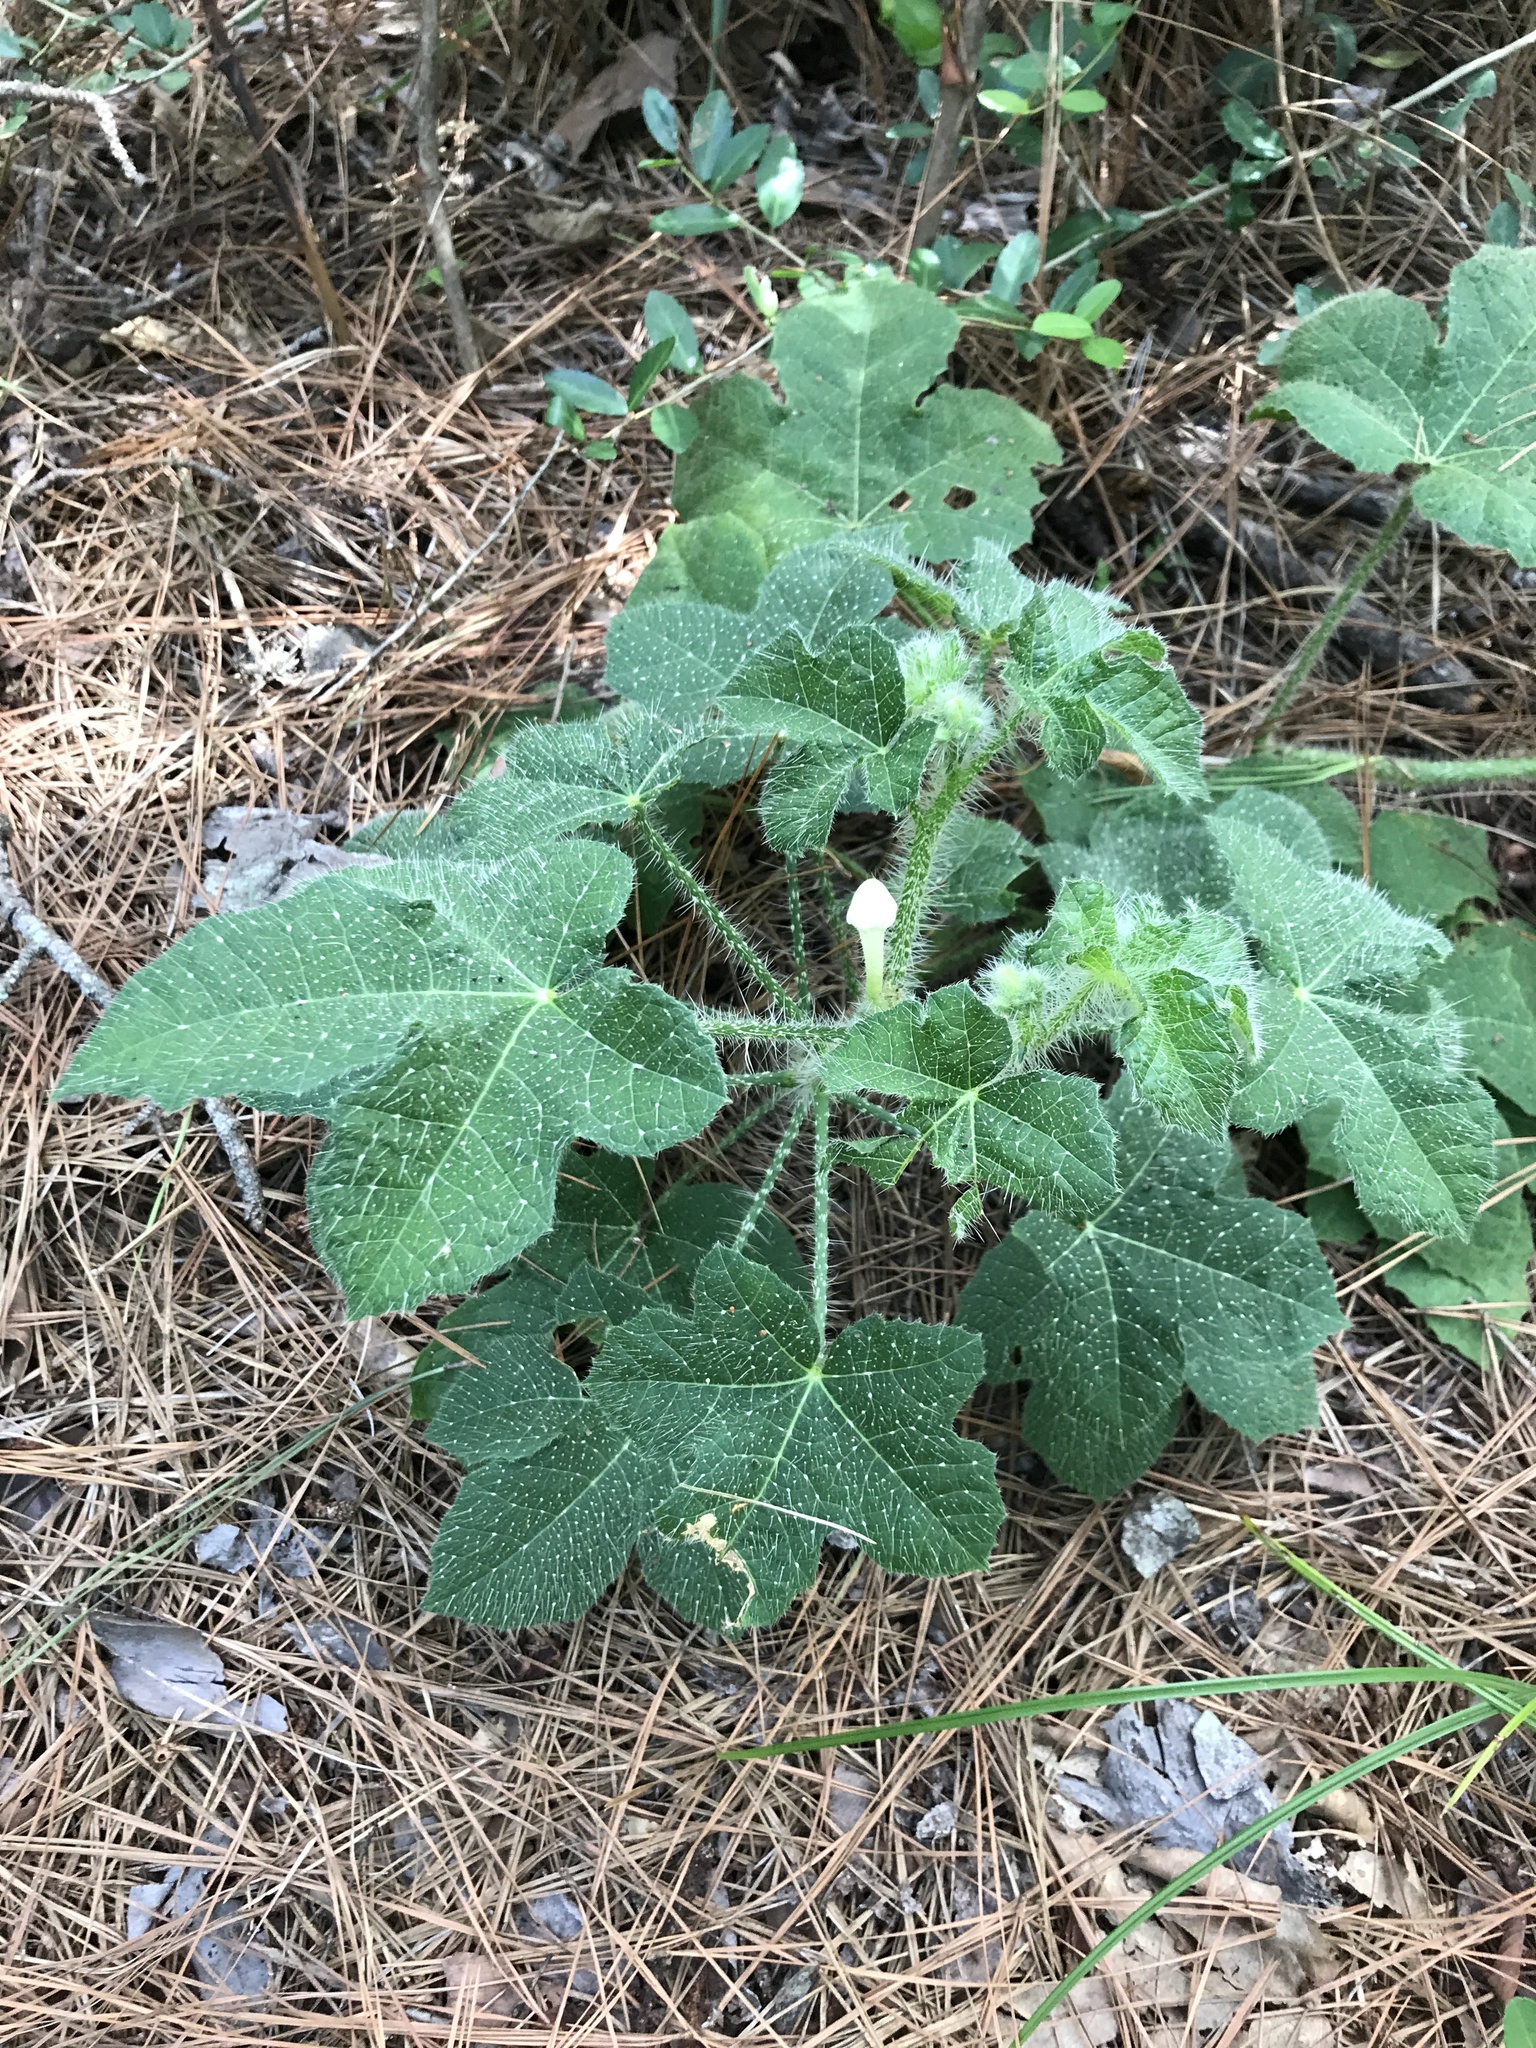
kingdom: Plantae
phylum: Tracheophyta
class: Magnoliopsida
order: Malpighiales
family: Euphorbiaceae
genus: Cnidoscolus
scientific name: Cnidoscolus texanus
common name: Texas bull-nettle
